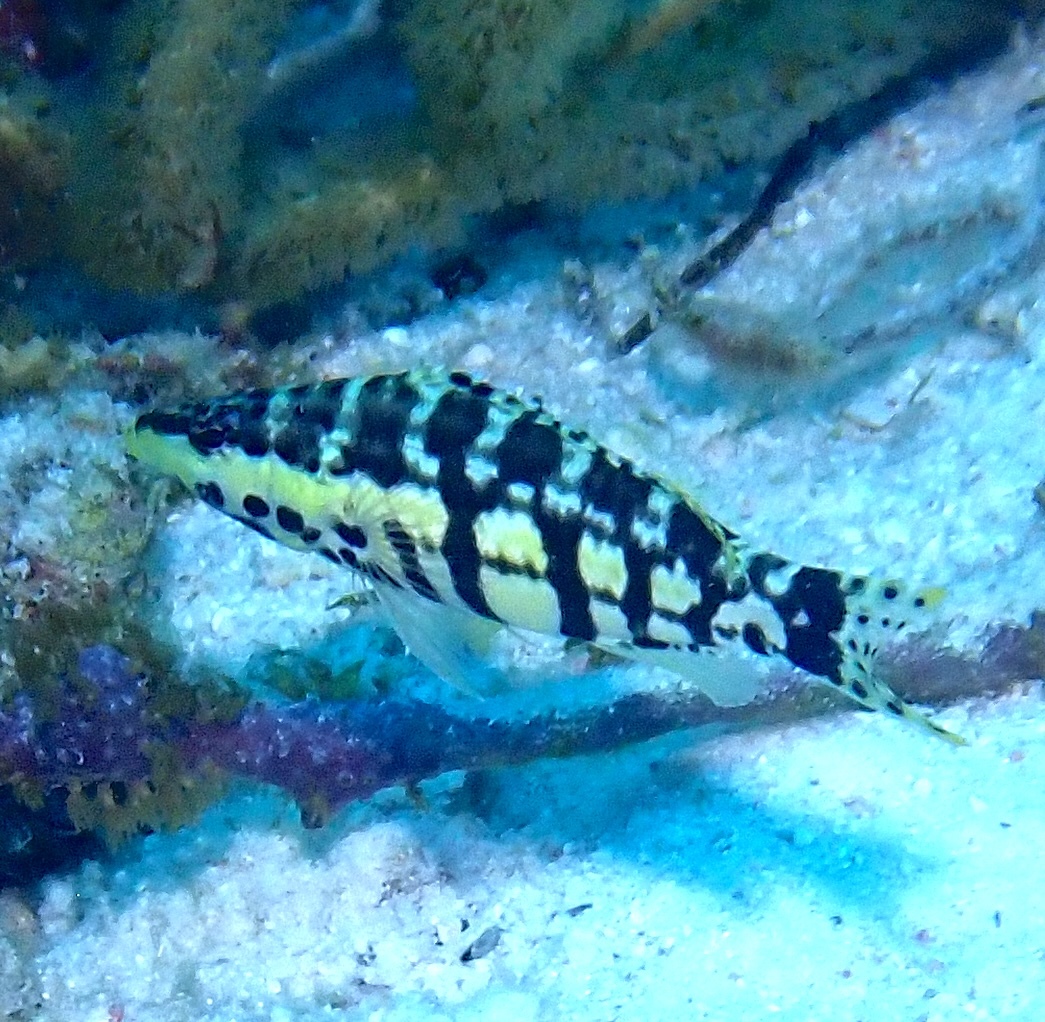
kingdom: Animalia
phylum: Chordata
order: Perciformes
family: Serranidae
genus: Serranus
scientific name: Serranus tigrinus
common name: Harlequin bass
